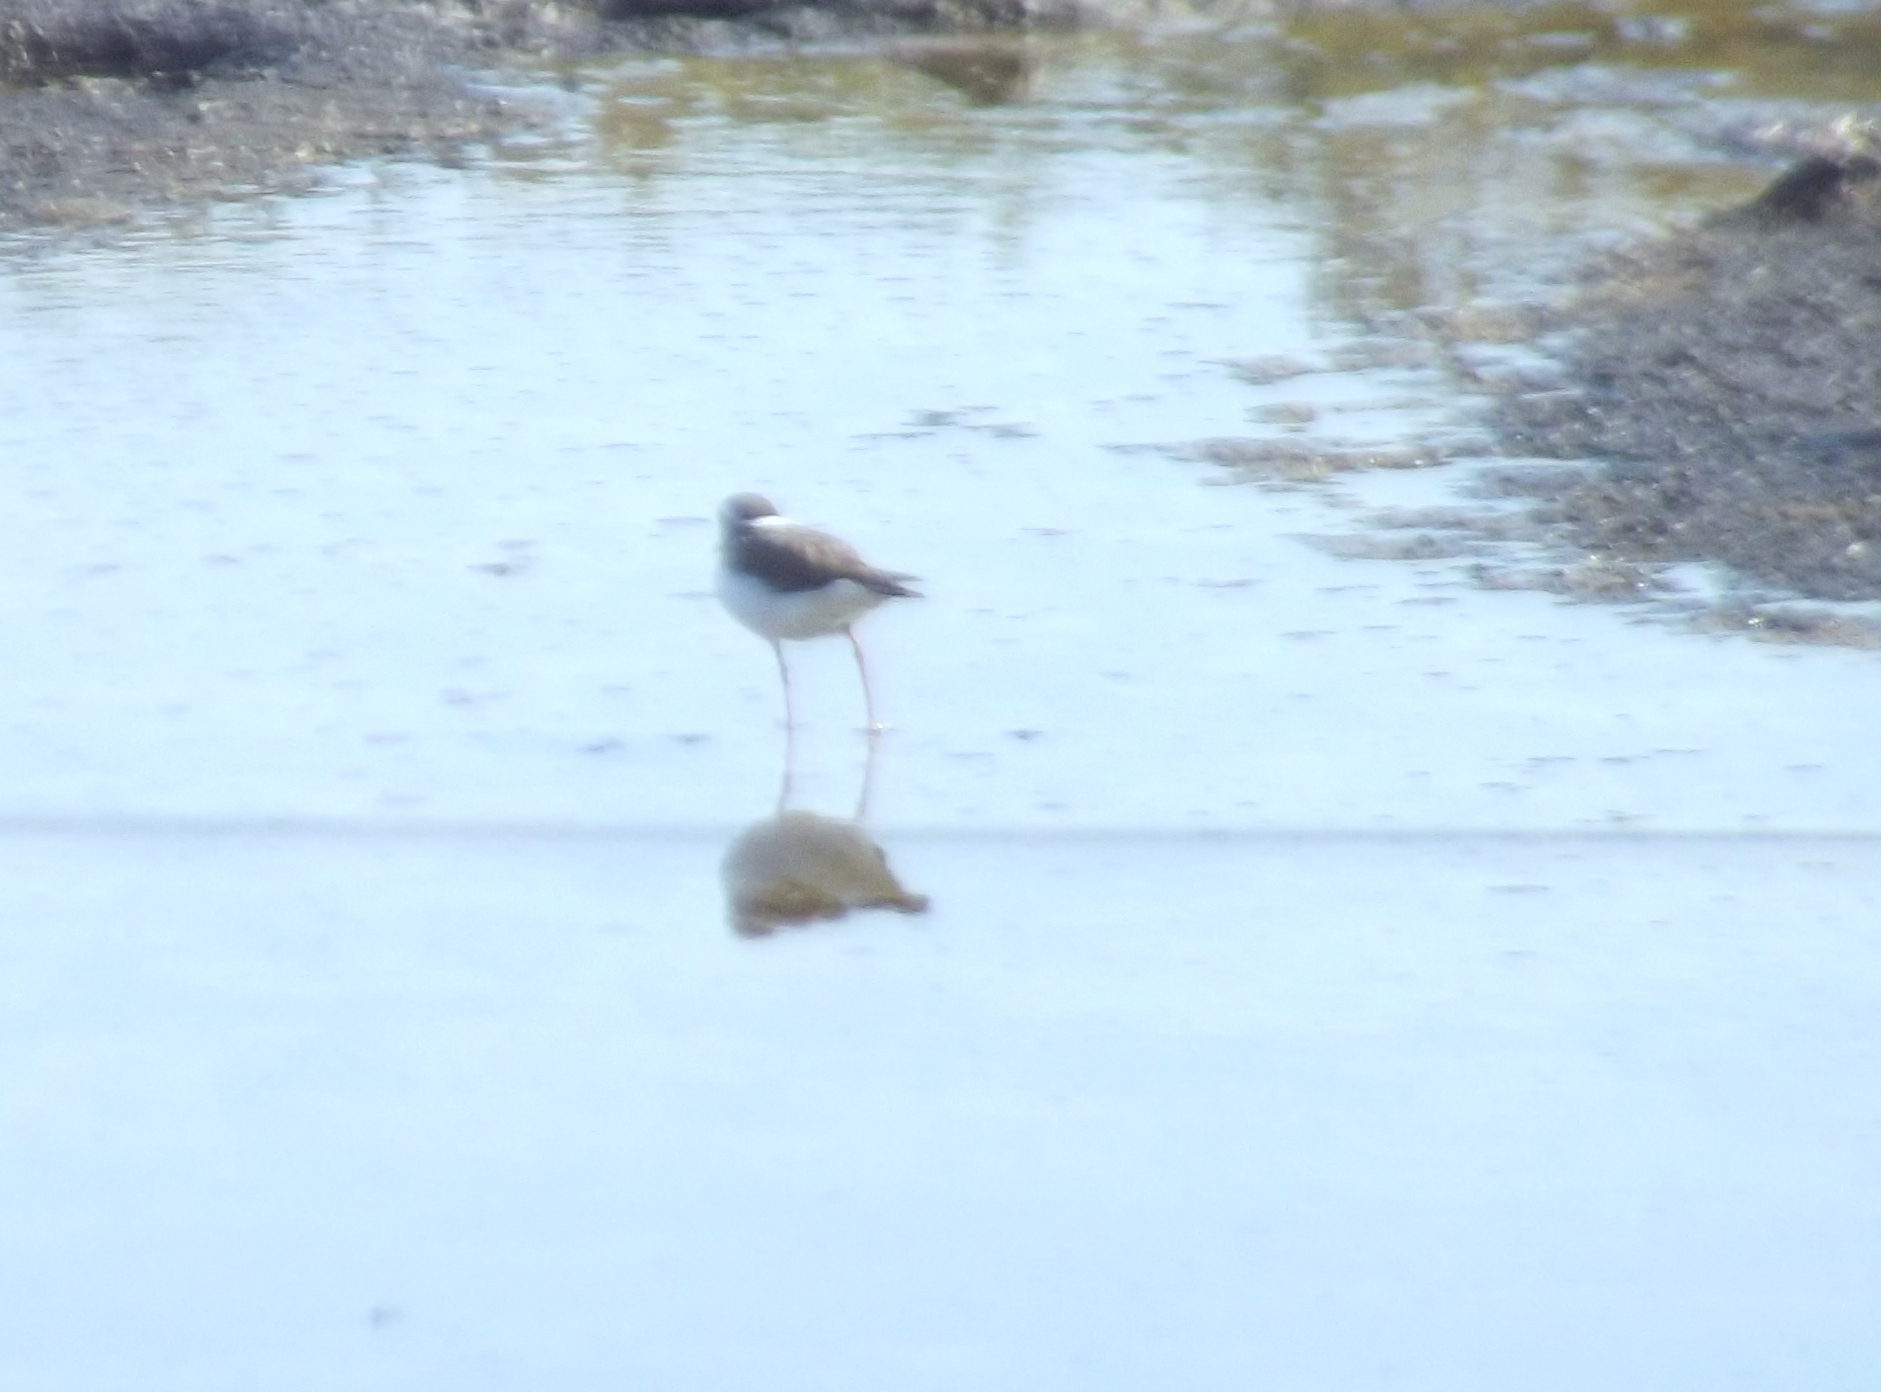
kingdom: Animalia
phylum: Chordata
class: Aves
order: Charadriiformes
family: Charadriidae
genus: Charadrius
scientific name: Charadrius tricollaris
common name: Three-banded plover
